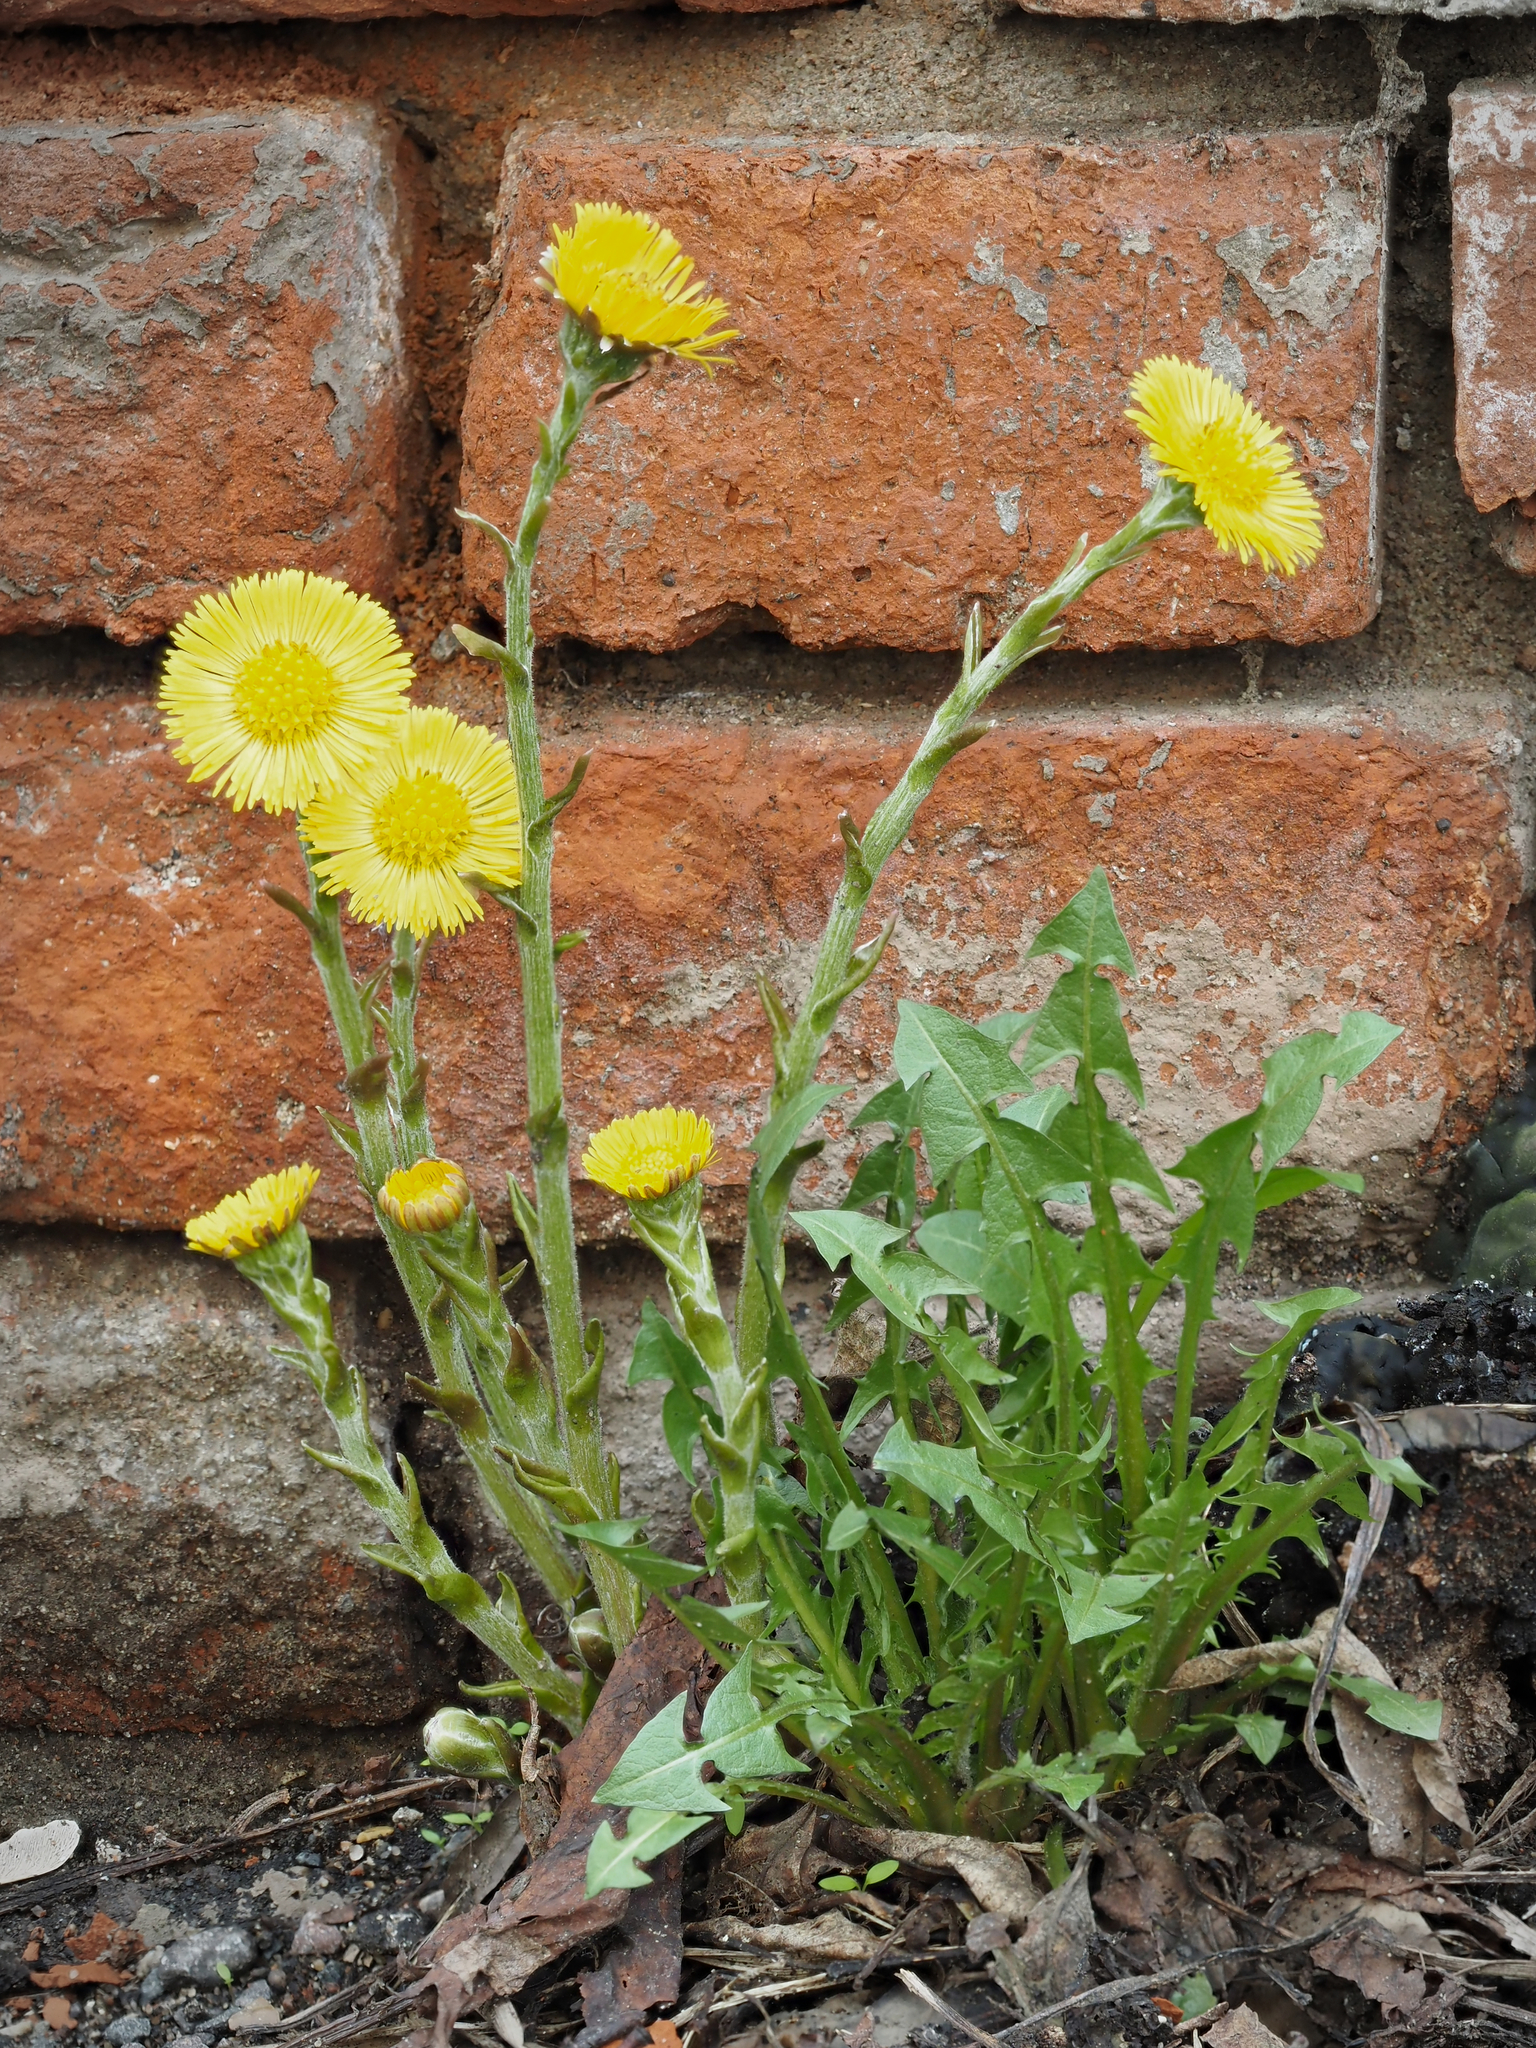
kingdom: Plantae
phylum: Tracheophyta
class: Magnoliopsida
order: Asterales
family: Asteraceae
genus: Tussilago
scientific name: Tussilago farfara
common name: Coltsfoot
